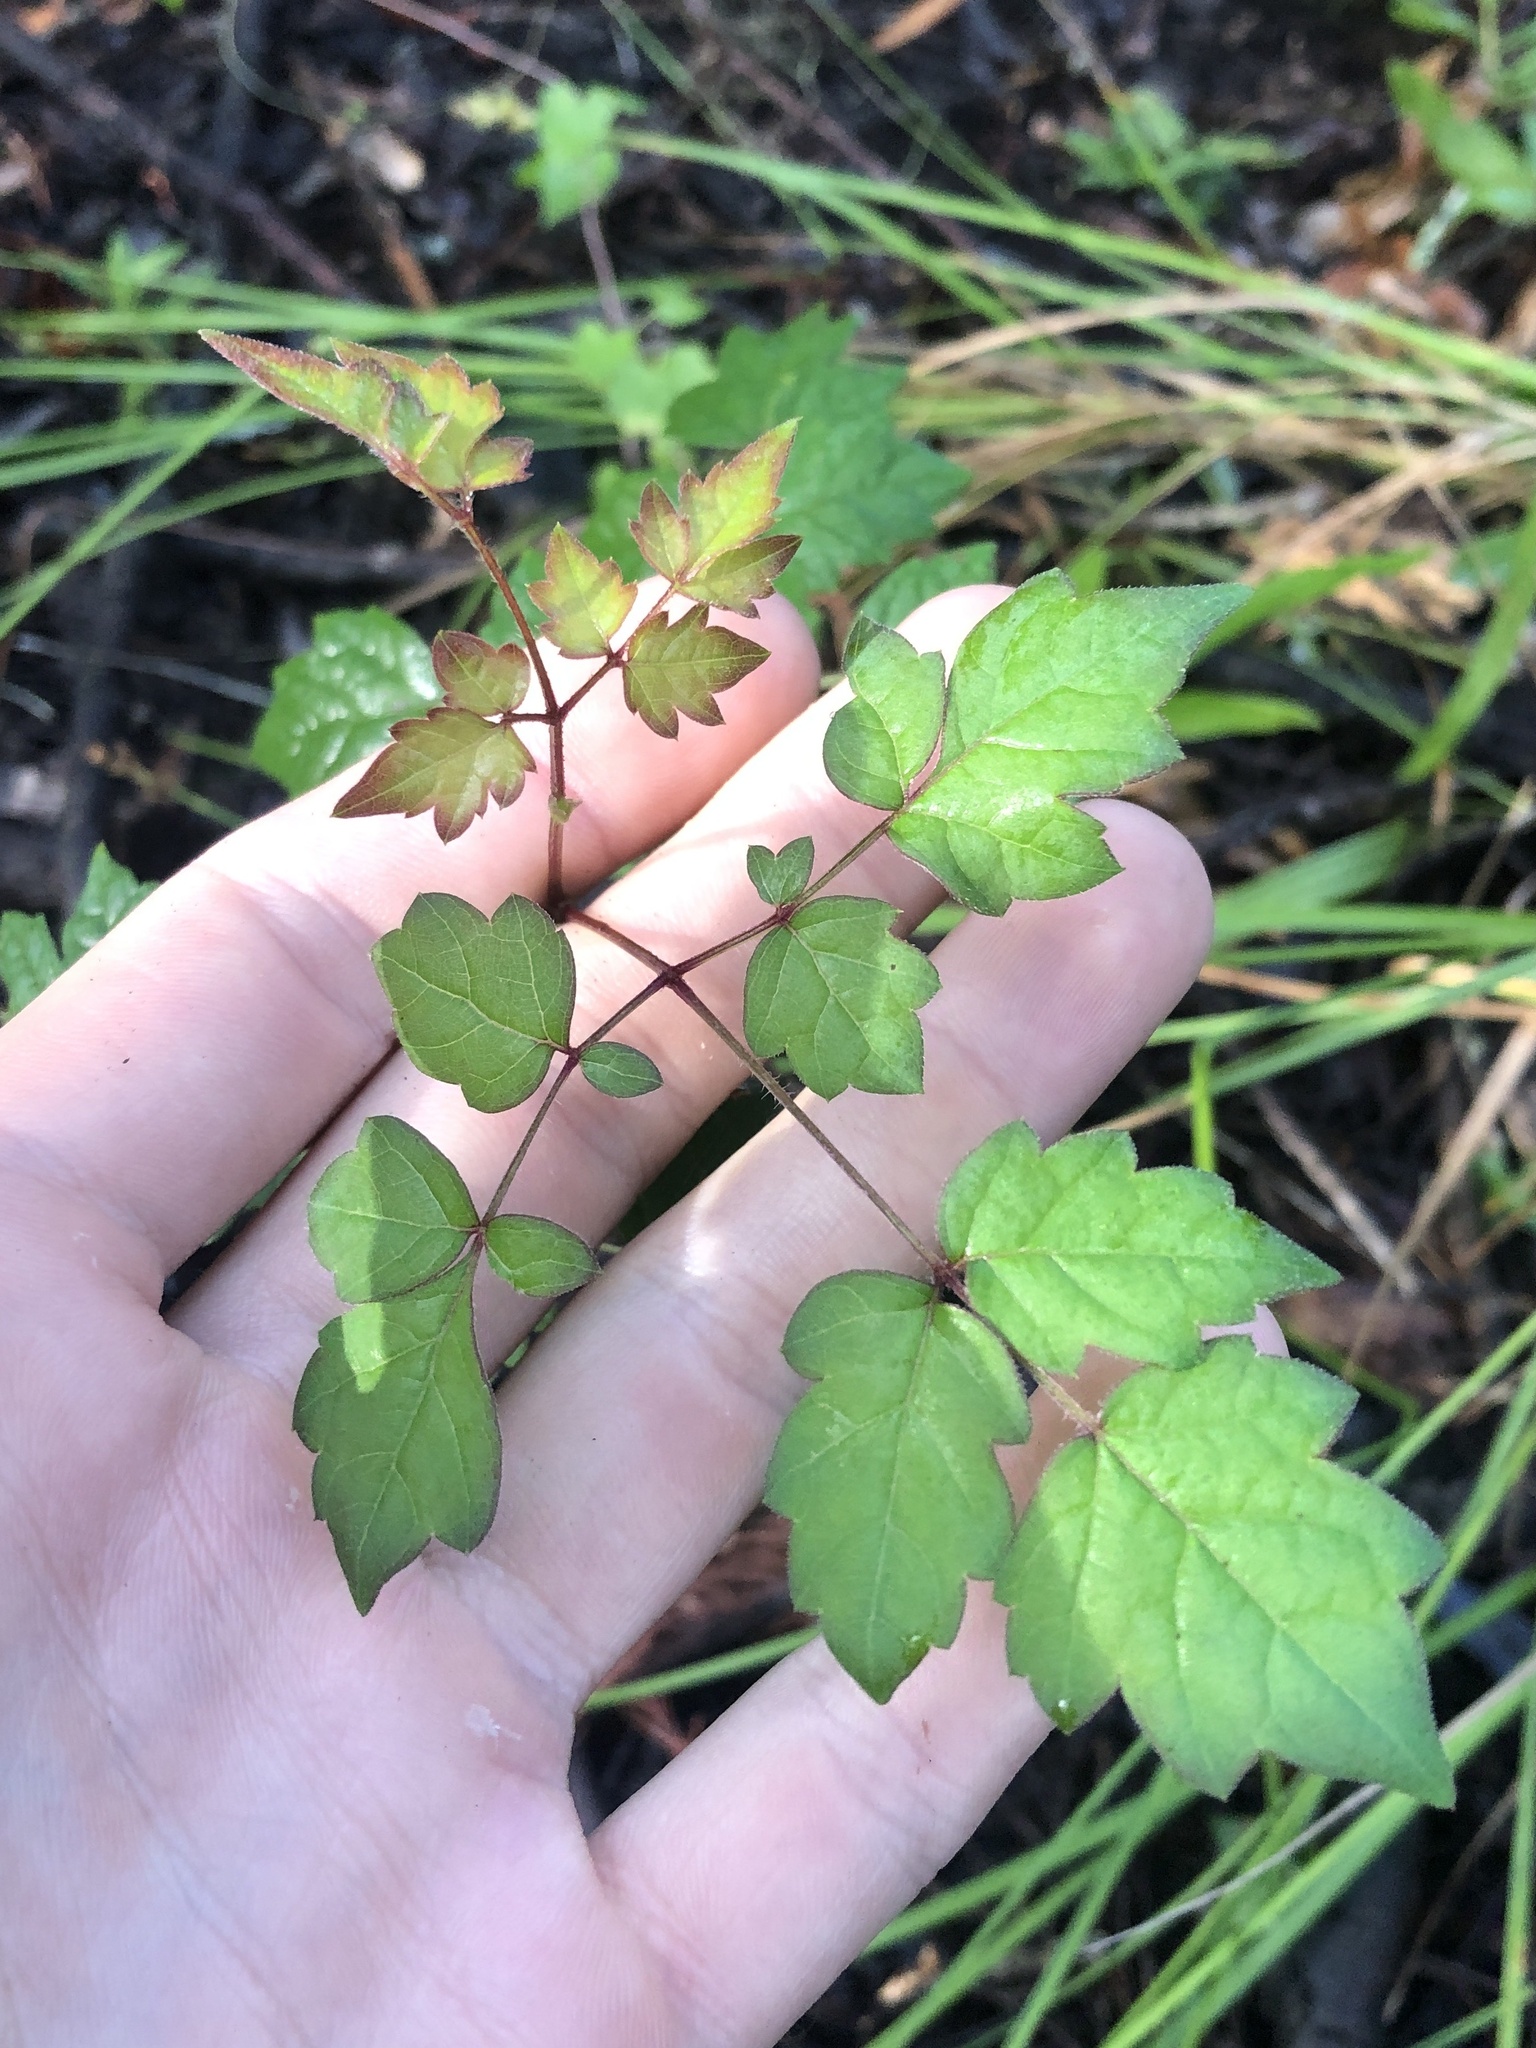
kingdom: Plantae
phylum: Tracheophyta
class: Magnoliopsida
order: Vitales
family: Vitaceae
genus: Nekemias
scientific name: Nekemias arborea
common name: Peppervine
